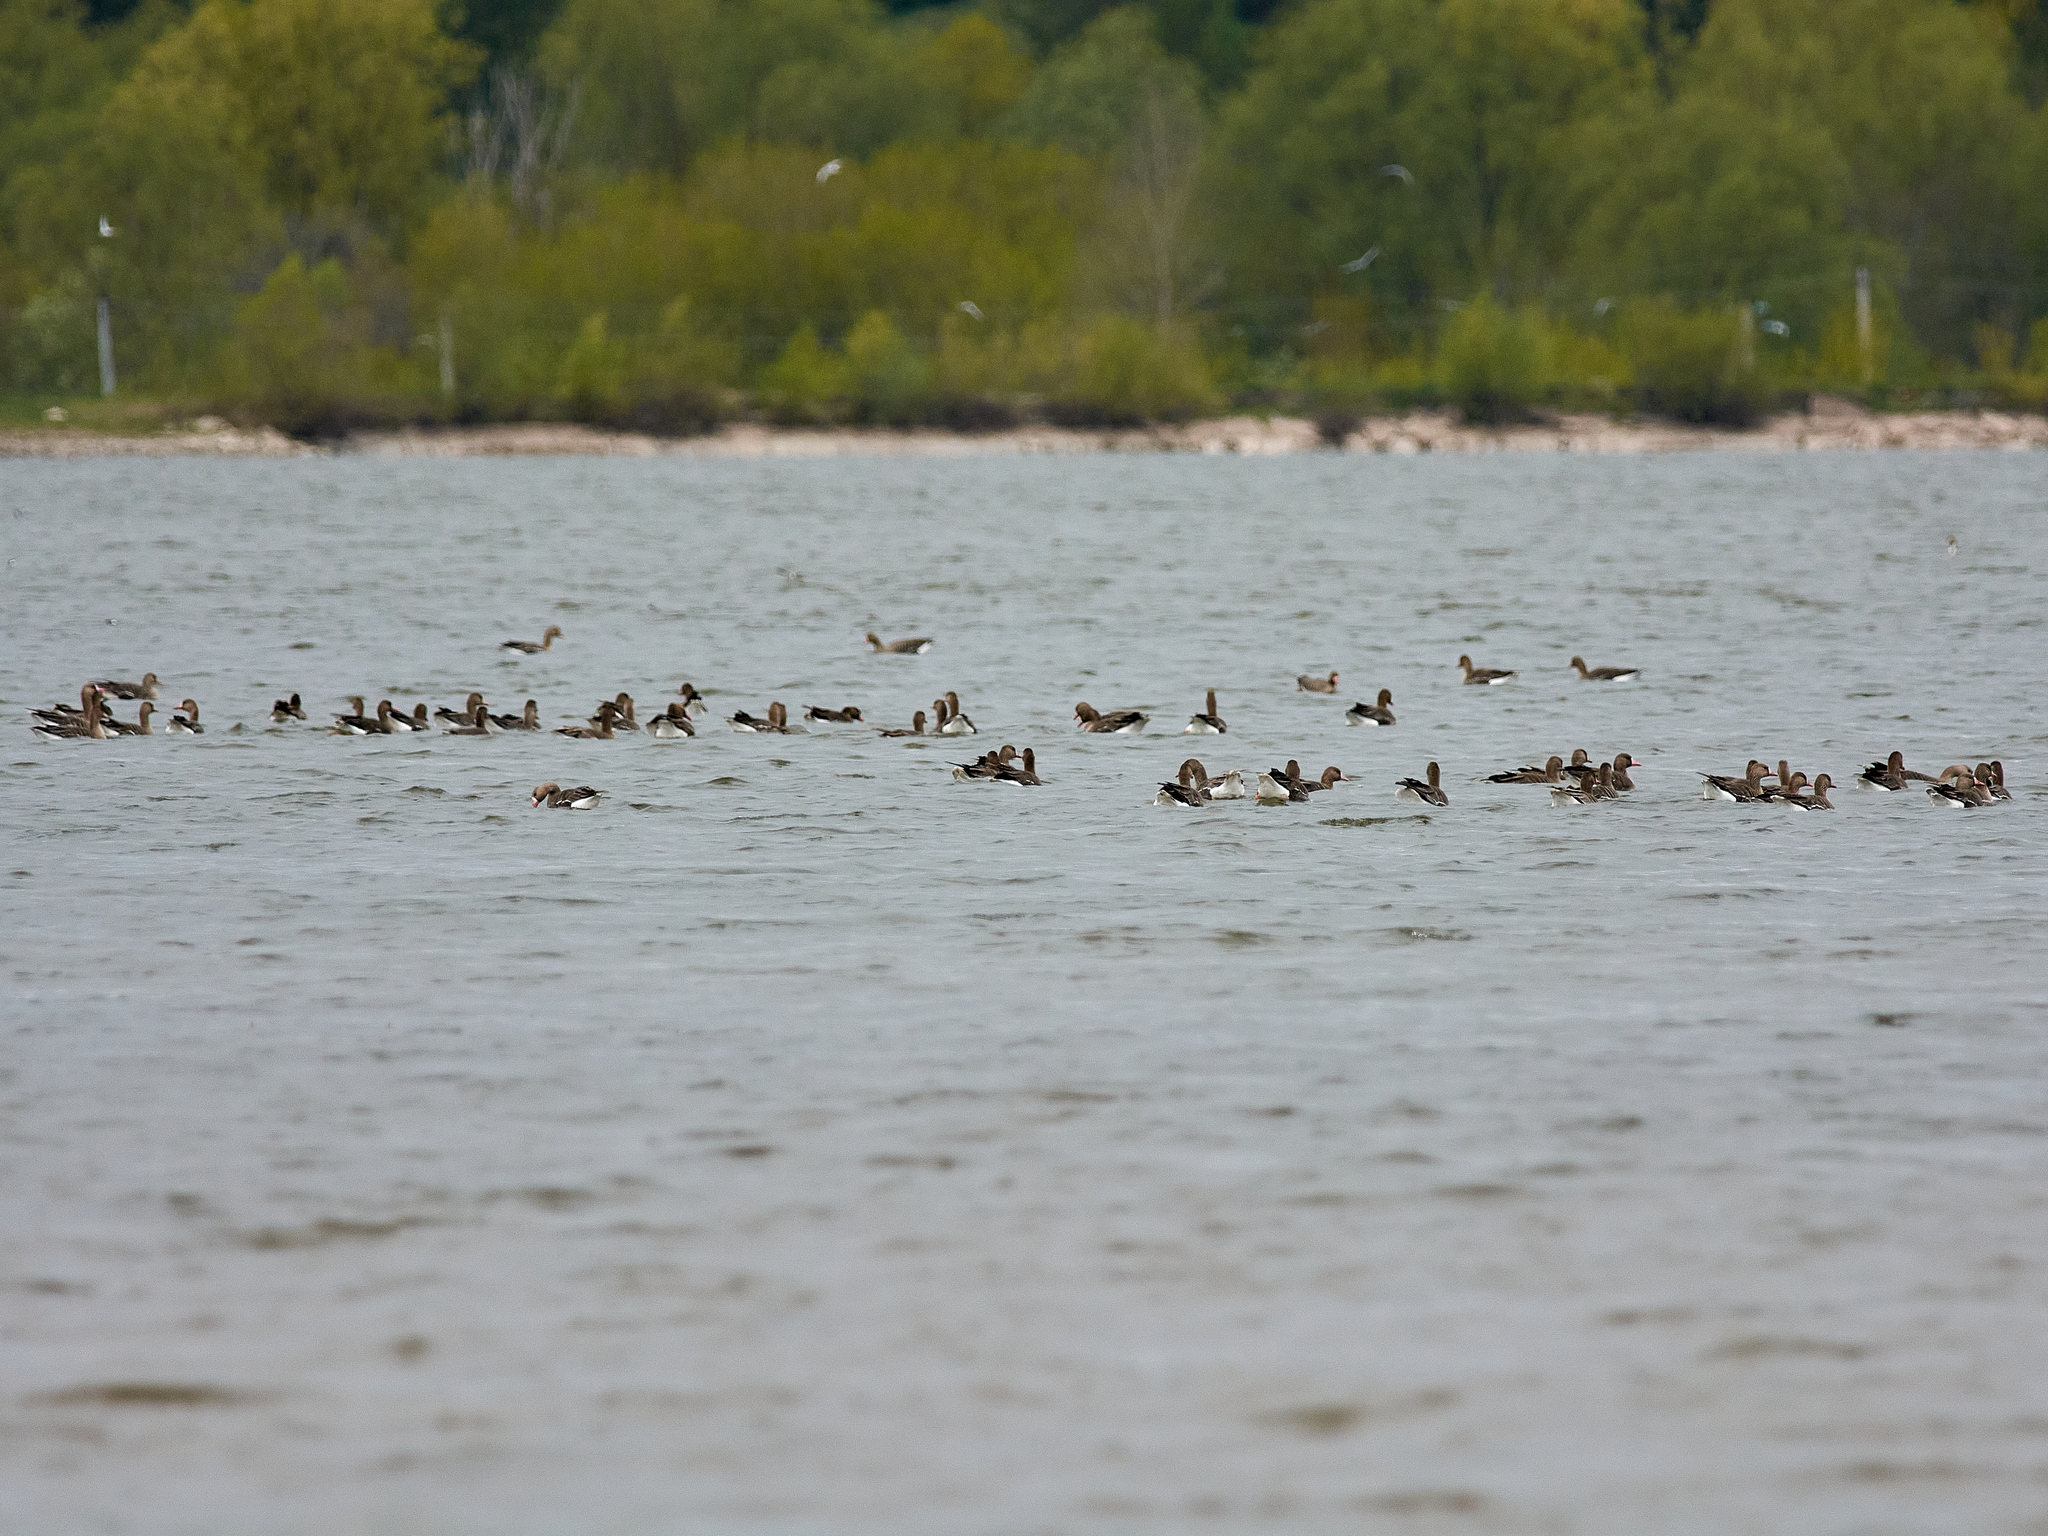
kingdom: Animalia
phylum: Chordata
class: Aves
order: Anseriformes
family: Anatidae
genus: Anser
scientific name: Anser albifrons
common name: Greater white-fronted goose
